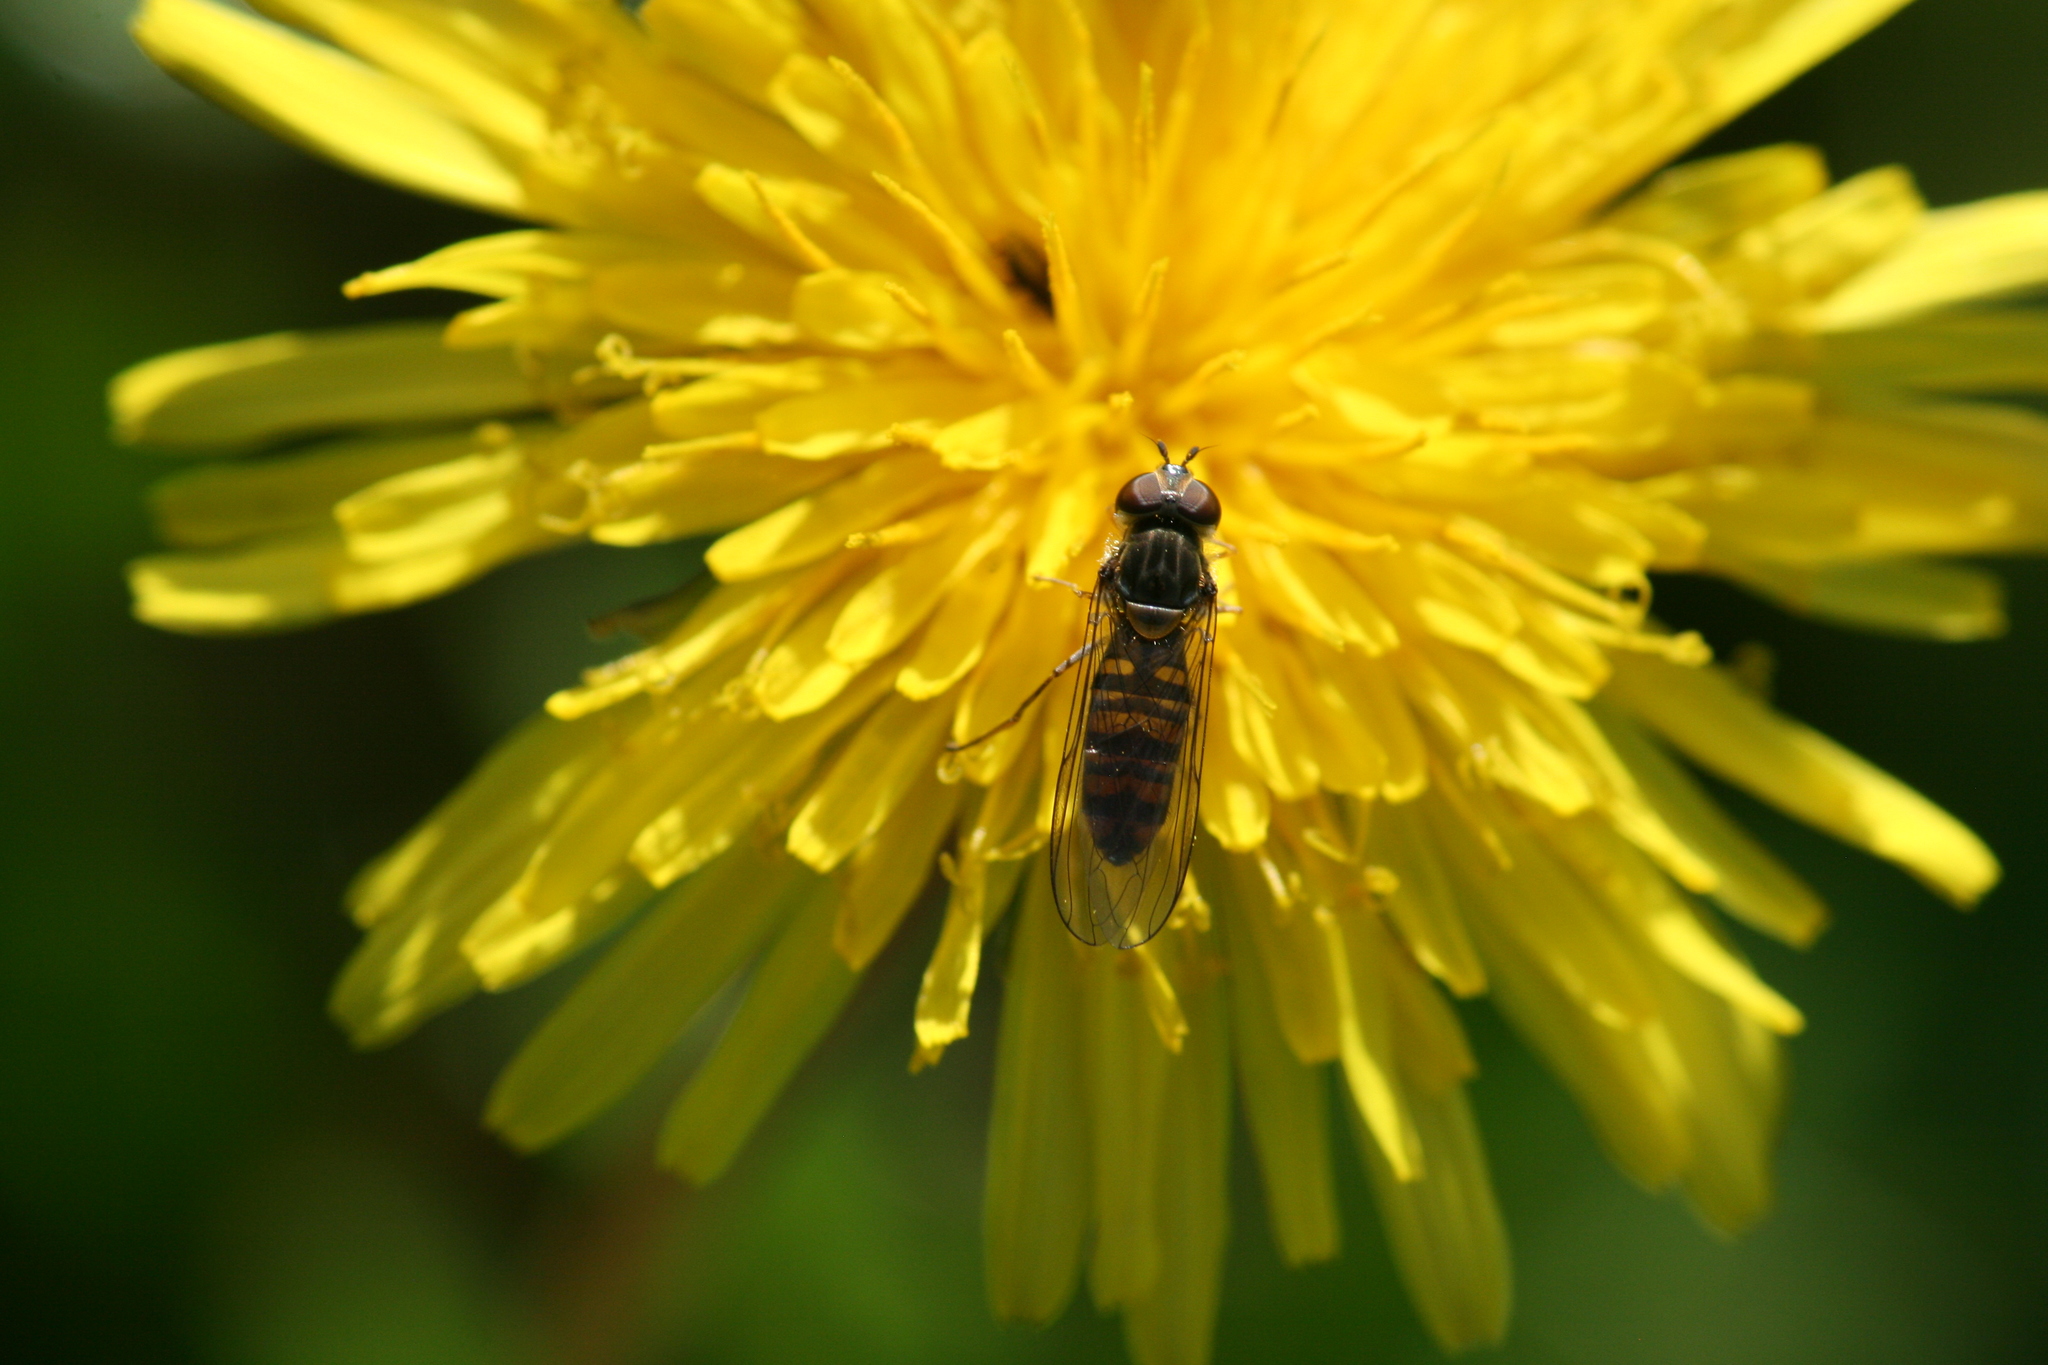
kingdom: Animalia
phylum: Arthropoda
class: Insecta
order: Diptera
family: Syrphidae
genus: Episyrphus
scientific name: Episyrphus balteatus
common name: Marmalade hoverfly
